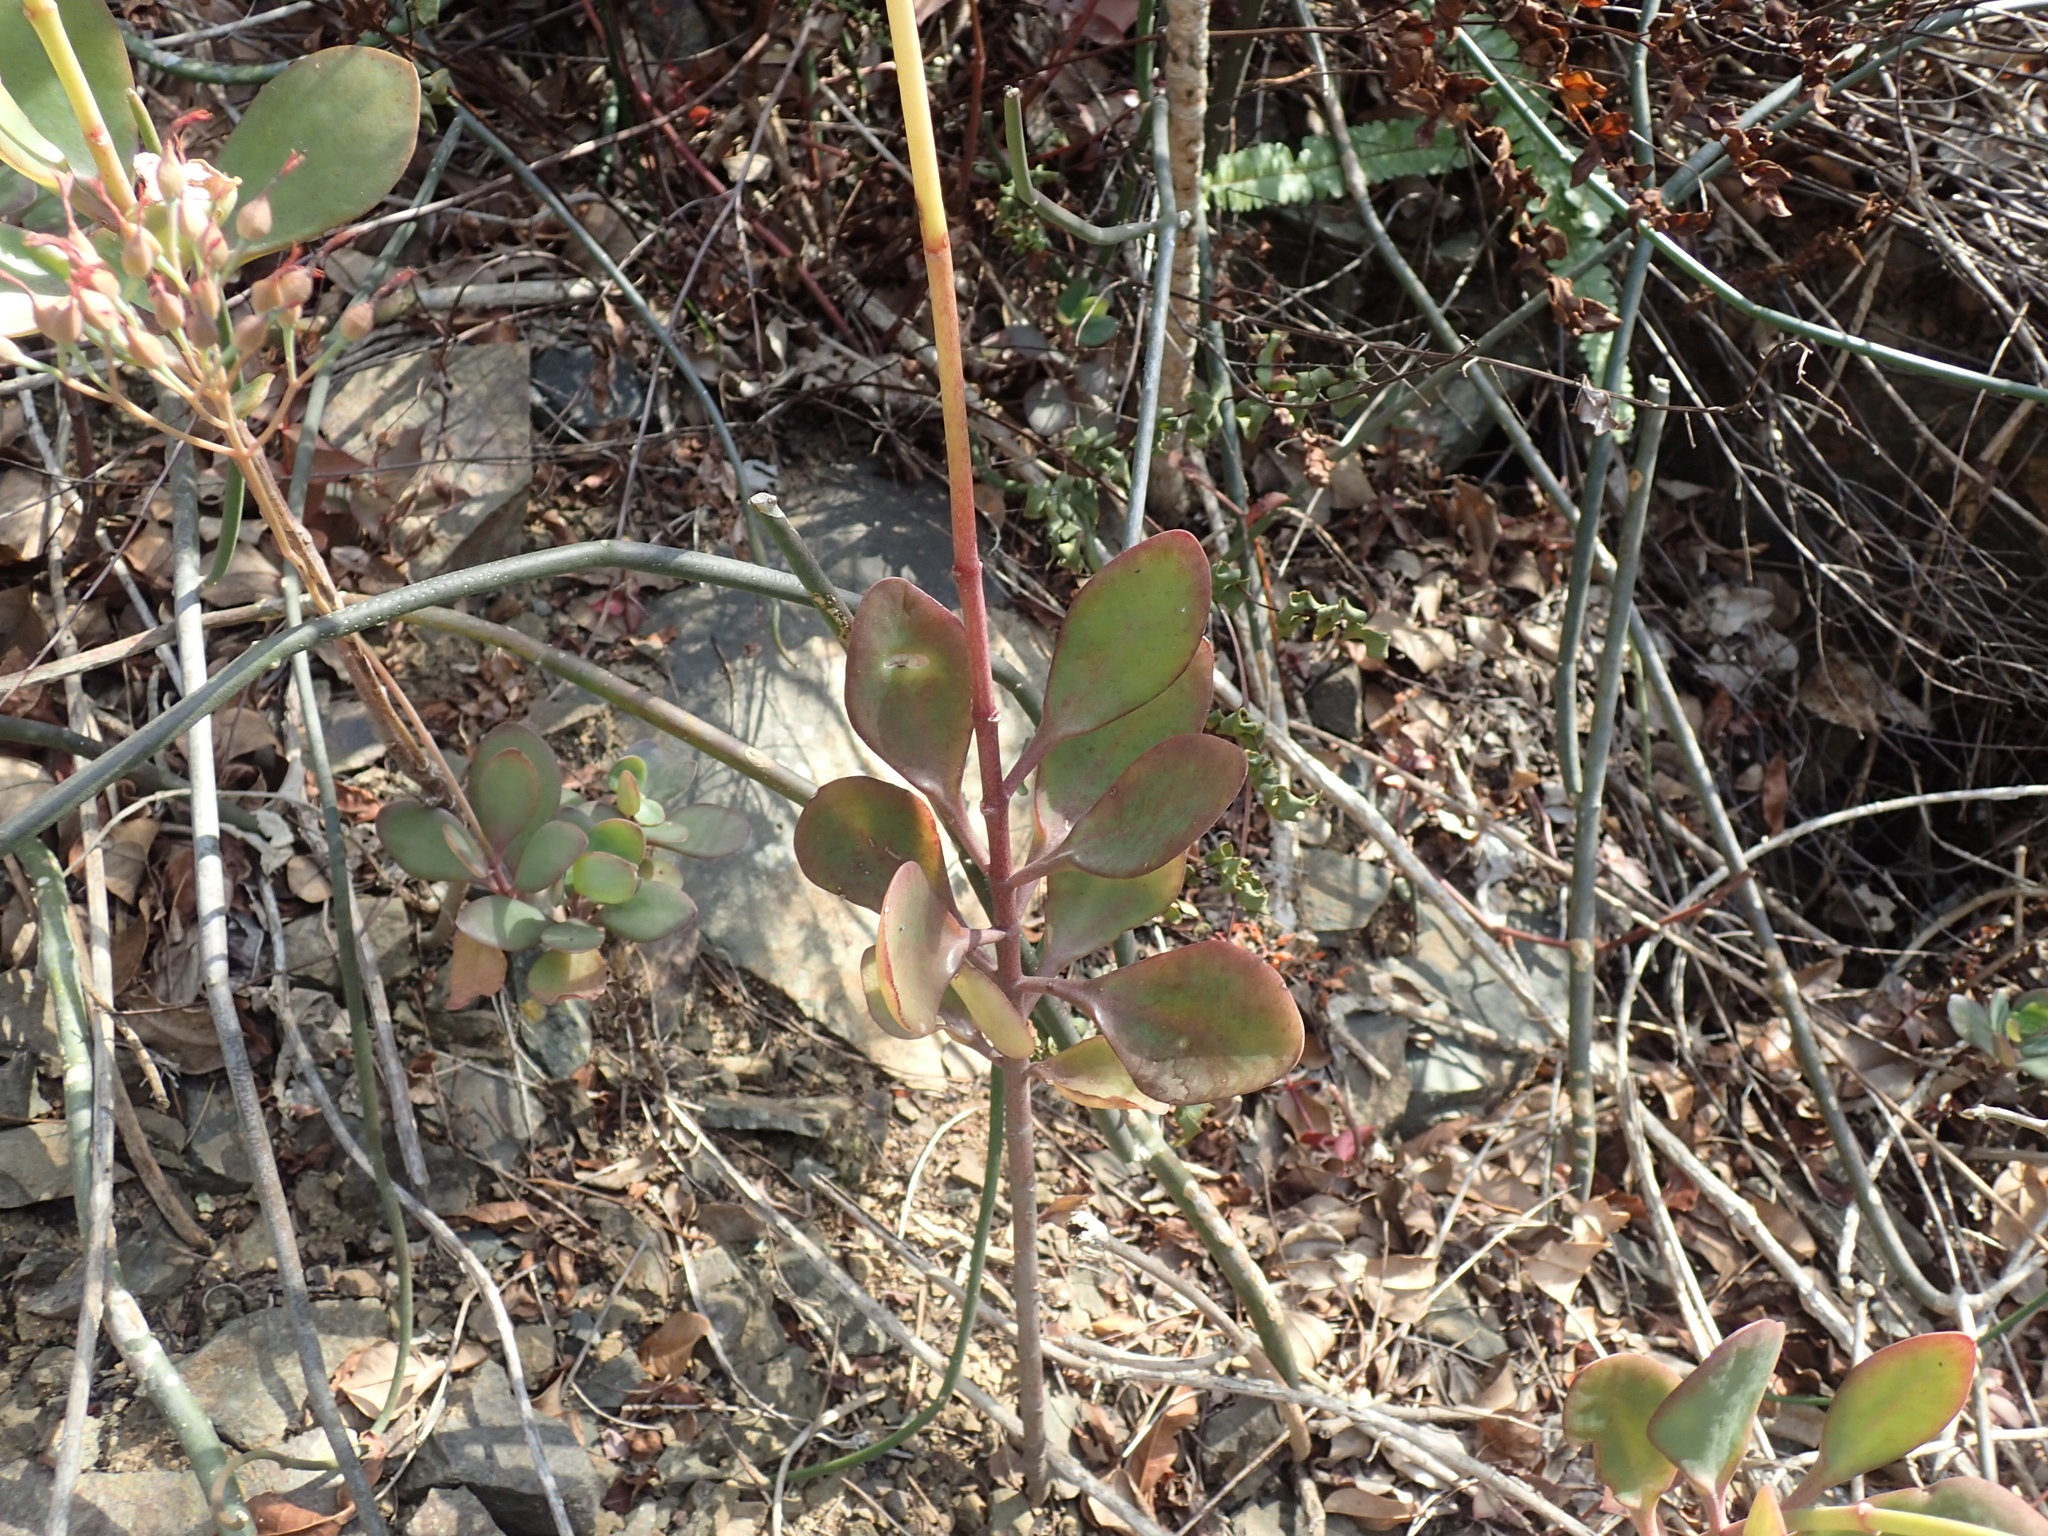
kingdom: Plantae
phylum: Tracheophyta
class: Magnoliopsida
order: Saxifragales
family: Crassulaceae
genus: Kalanchoe
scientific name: Kalanchoe rotundifolia
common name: Common kalanchoe
